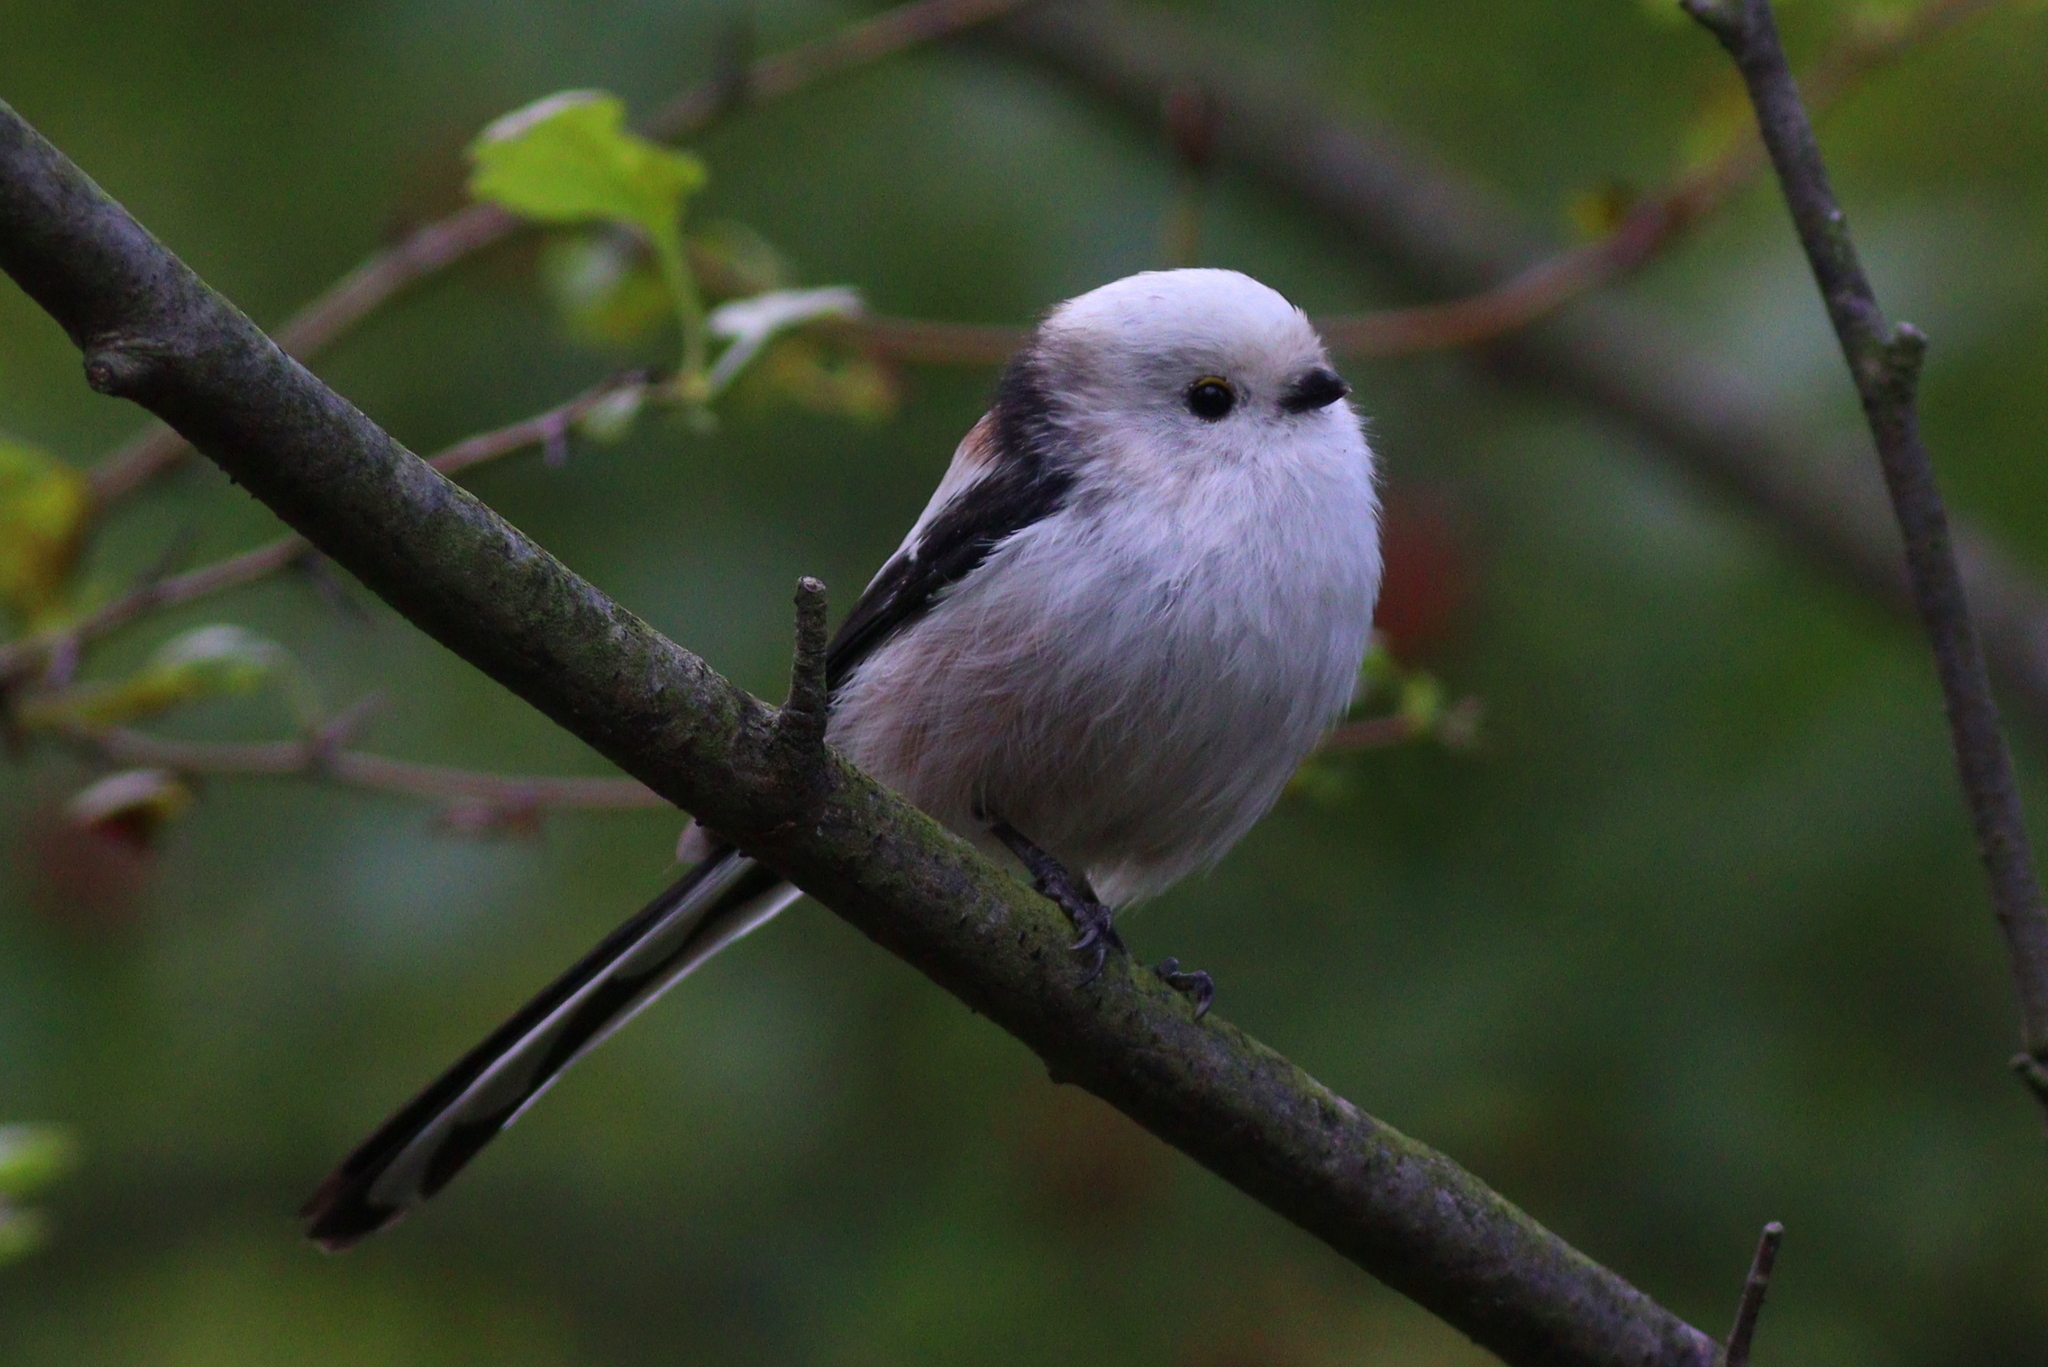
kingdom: Animalia
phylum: Chordata
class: Aves
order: Passeriformes
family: Aegithalidae
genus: Aegithalos
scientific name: Aegithalos caudatus
